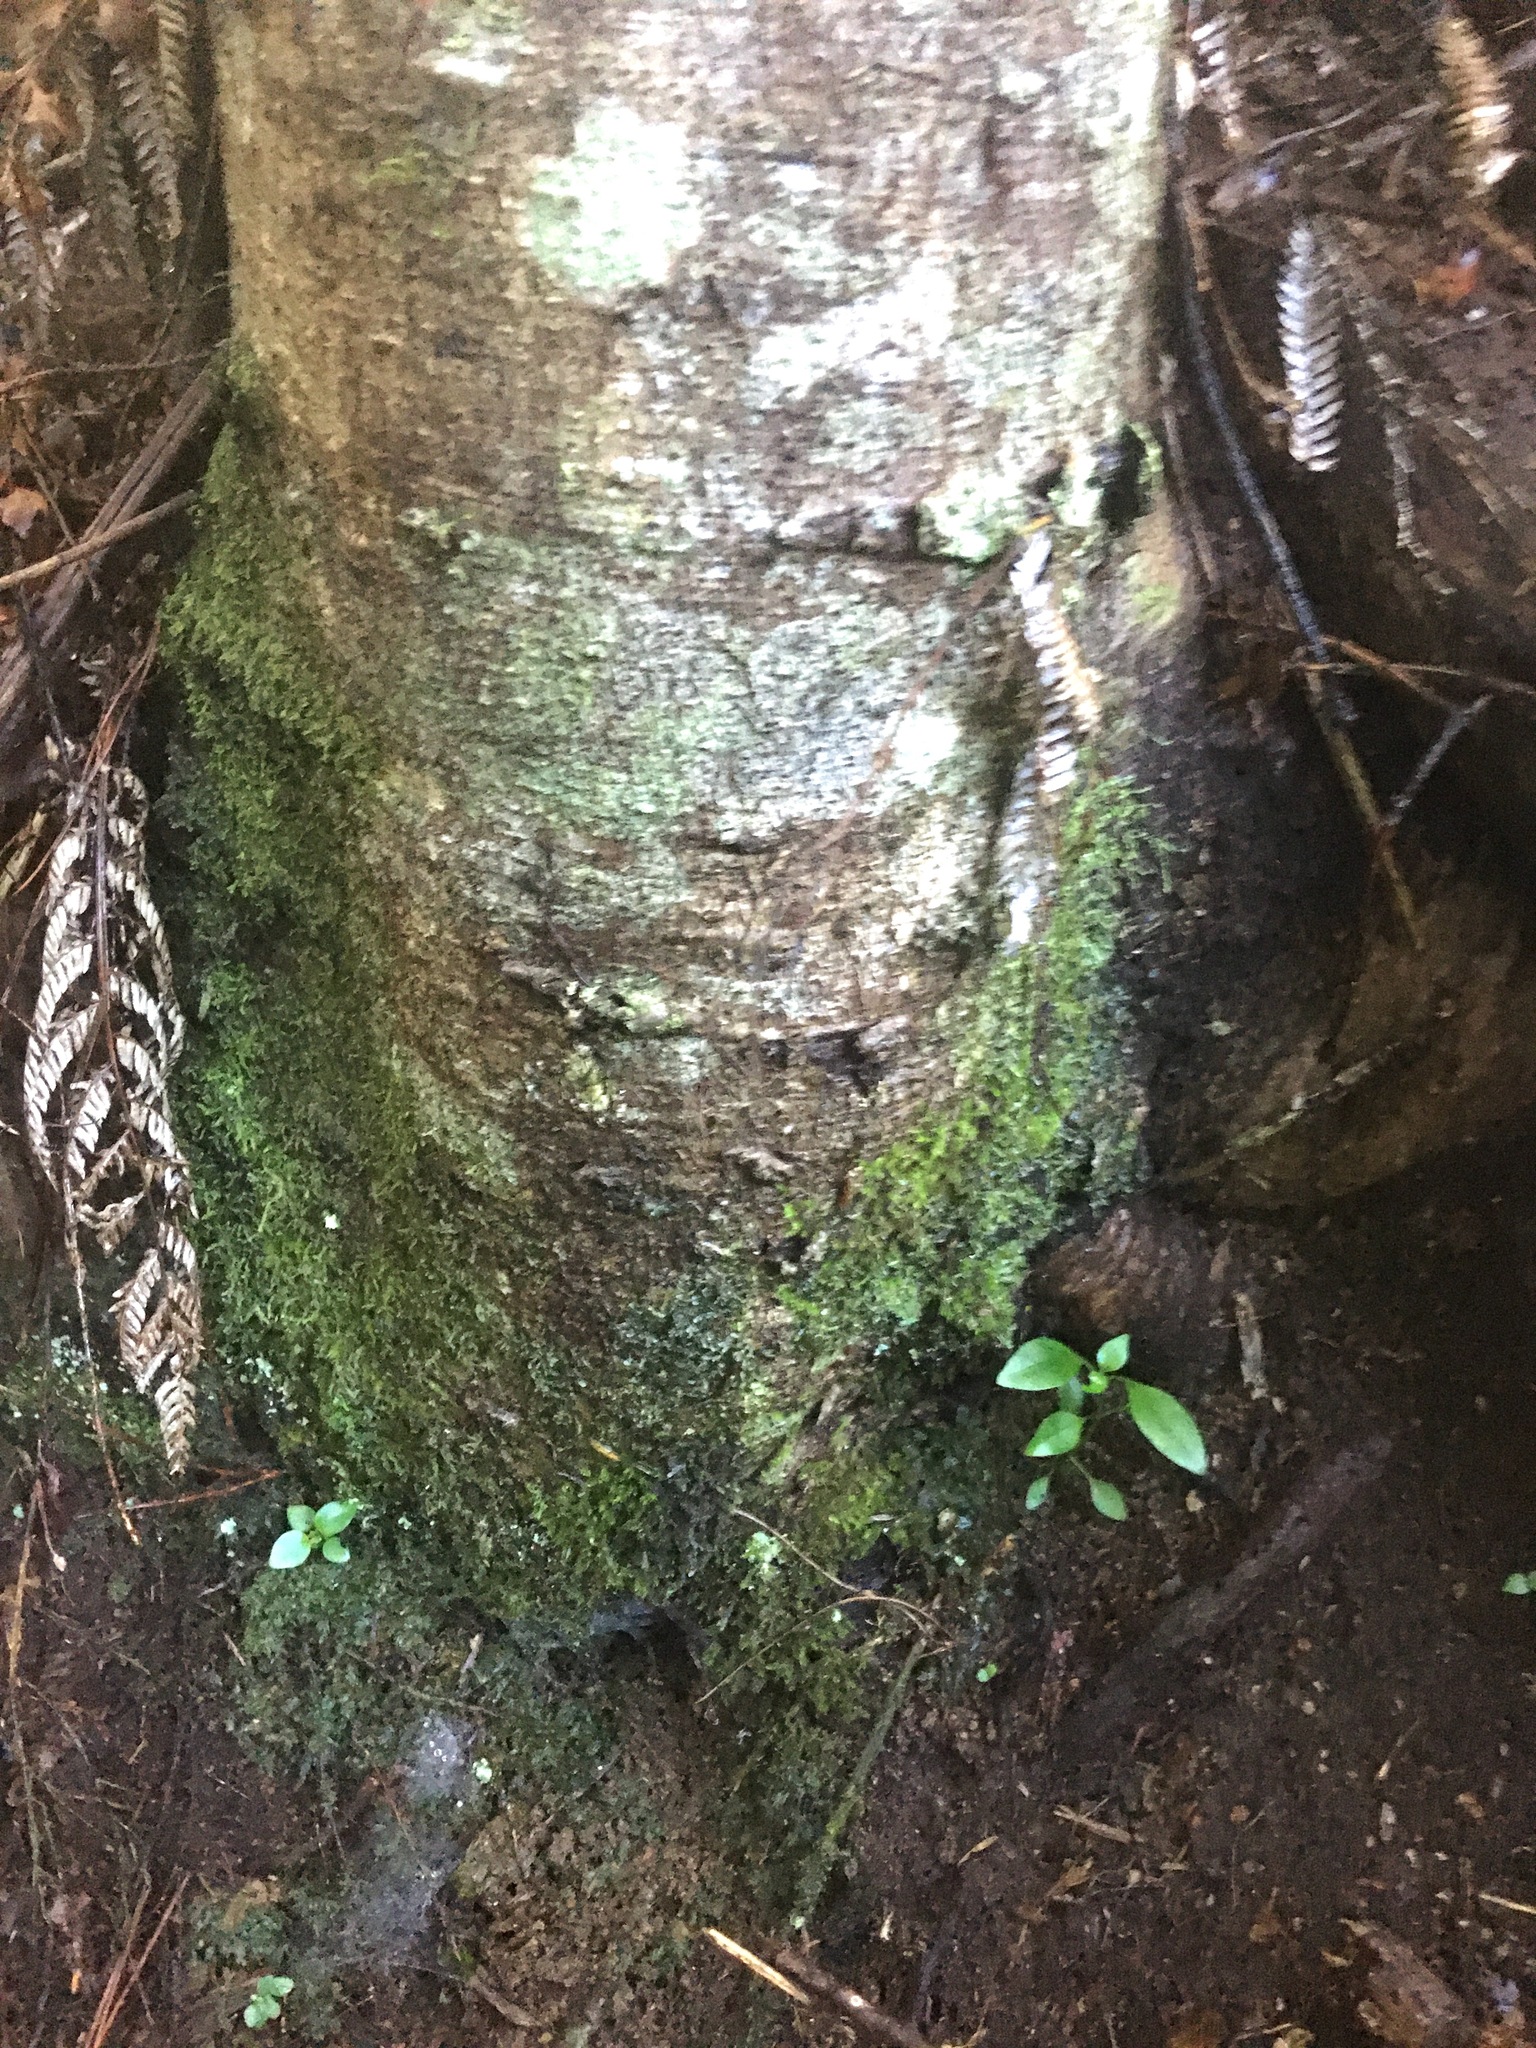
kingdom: Plantae
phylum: Tracheophyta
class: Magnoliopsida
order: Gentianales
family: Loganiaceae
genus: Geniostoma
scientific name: Geniostoma ligustrifolium
